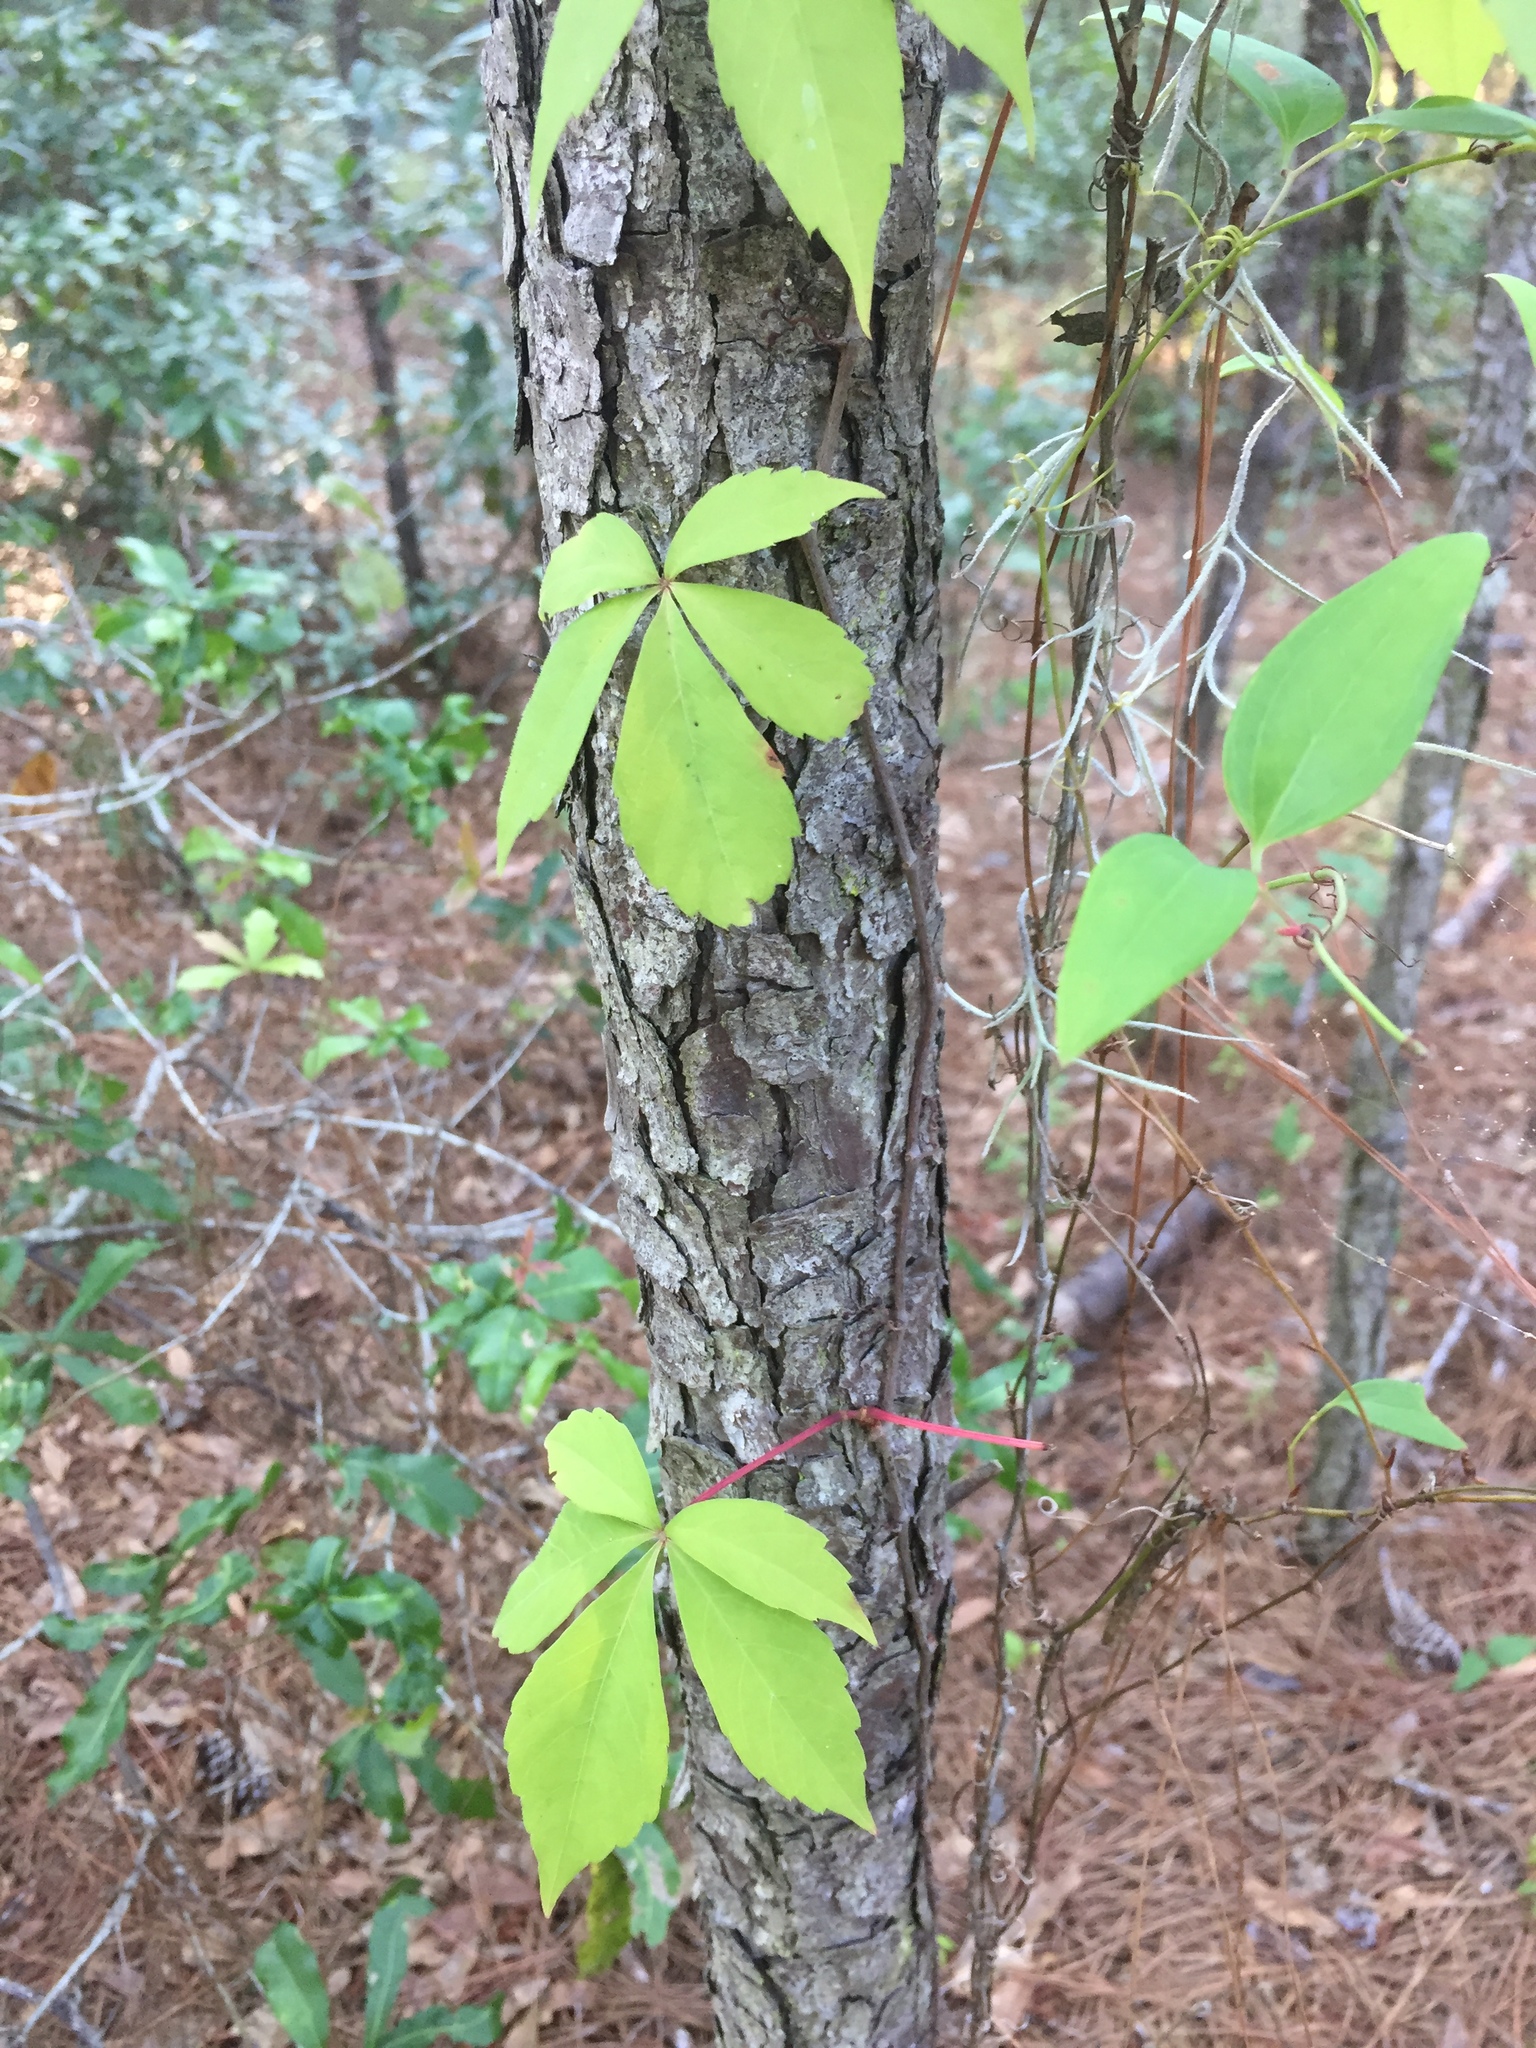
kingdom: Plantae
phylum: Tracheophyta
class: Magnoliopsida
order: Vitales
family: Vitaceae
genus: Parthenocissus
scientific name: Parthenocissus quinquefolia
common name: Virginia-creeper
